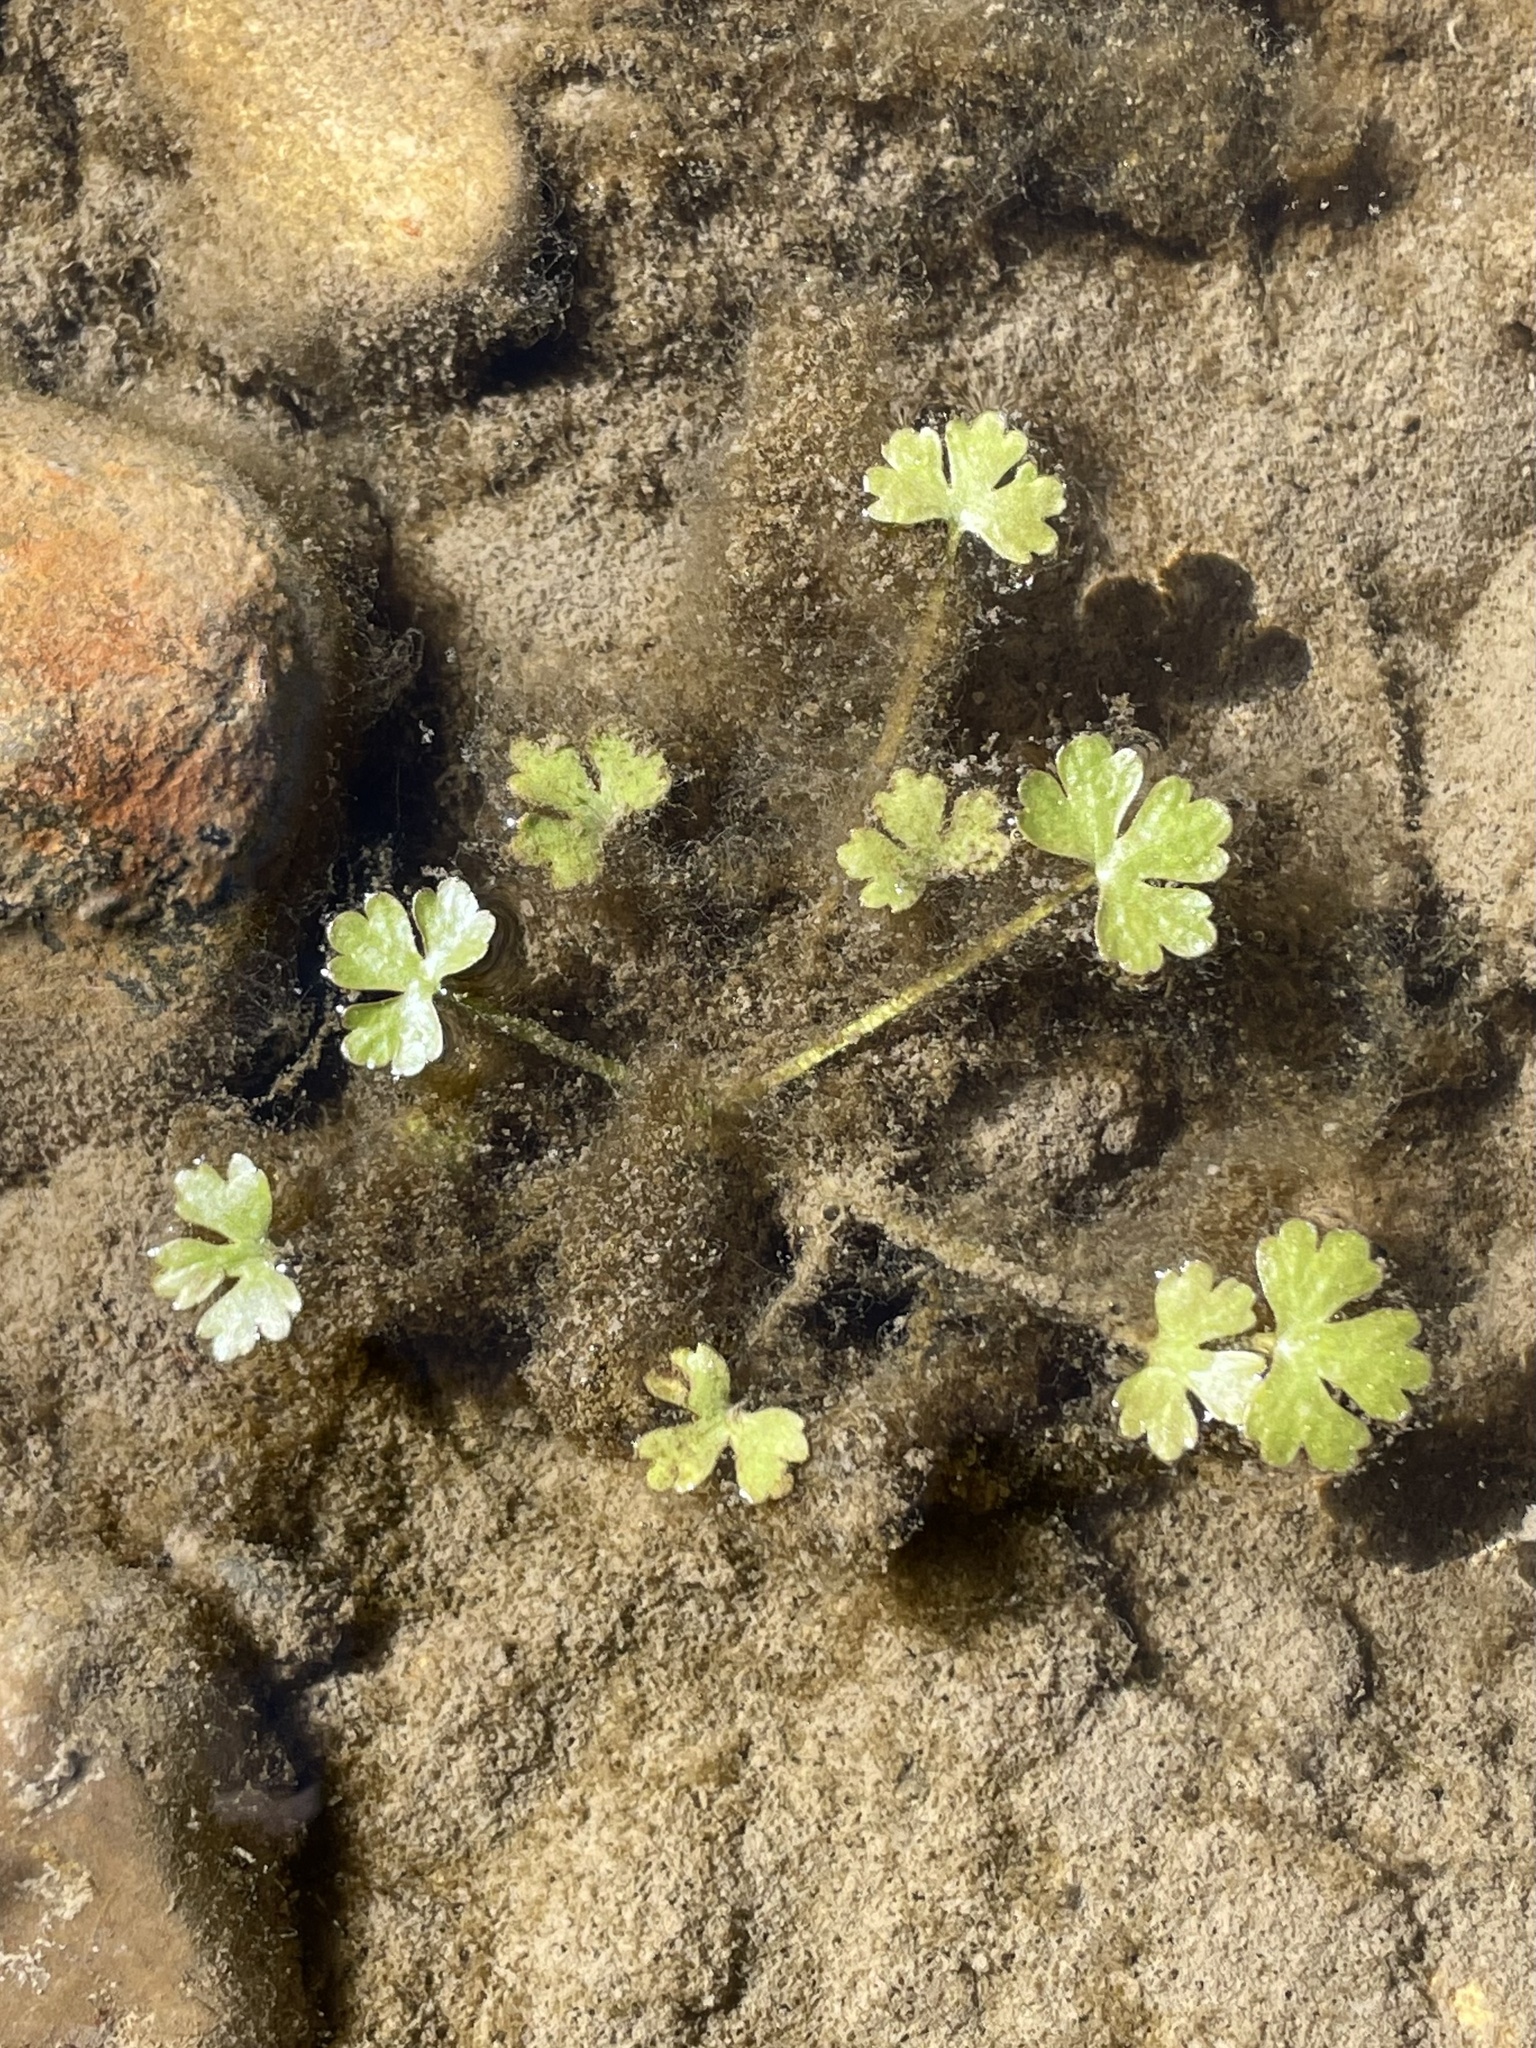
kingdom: Plantae
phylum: Tracheophyta
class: Magnoliopsida
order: Ranunculales
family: Ranunculaceae
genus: Ranunculus
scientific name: Ranunculus sceleratus
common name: Celery-leaved buttercup
